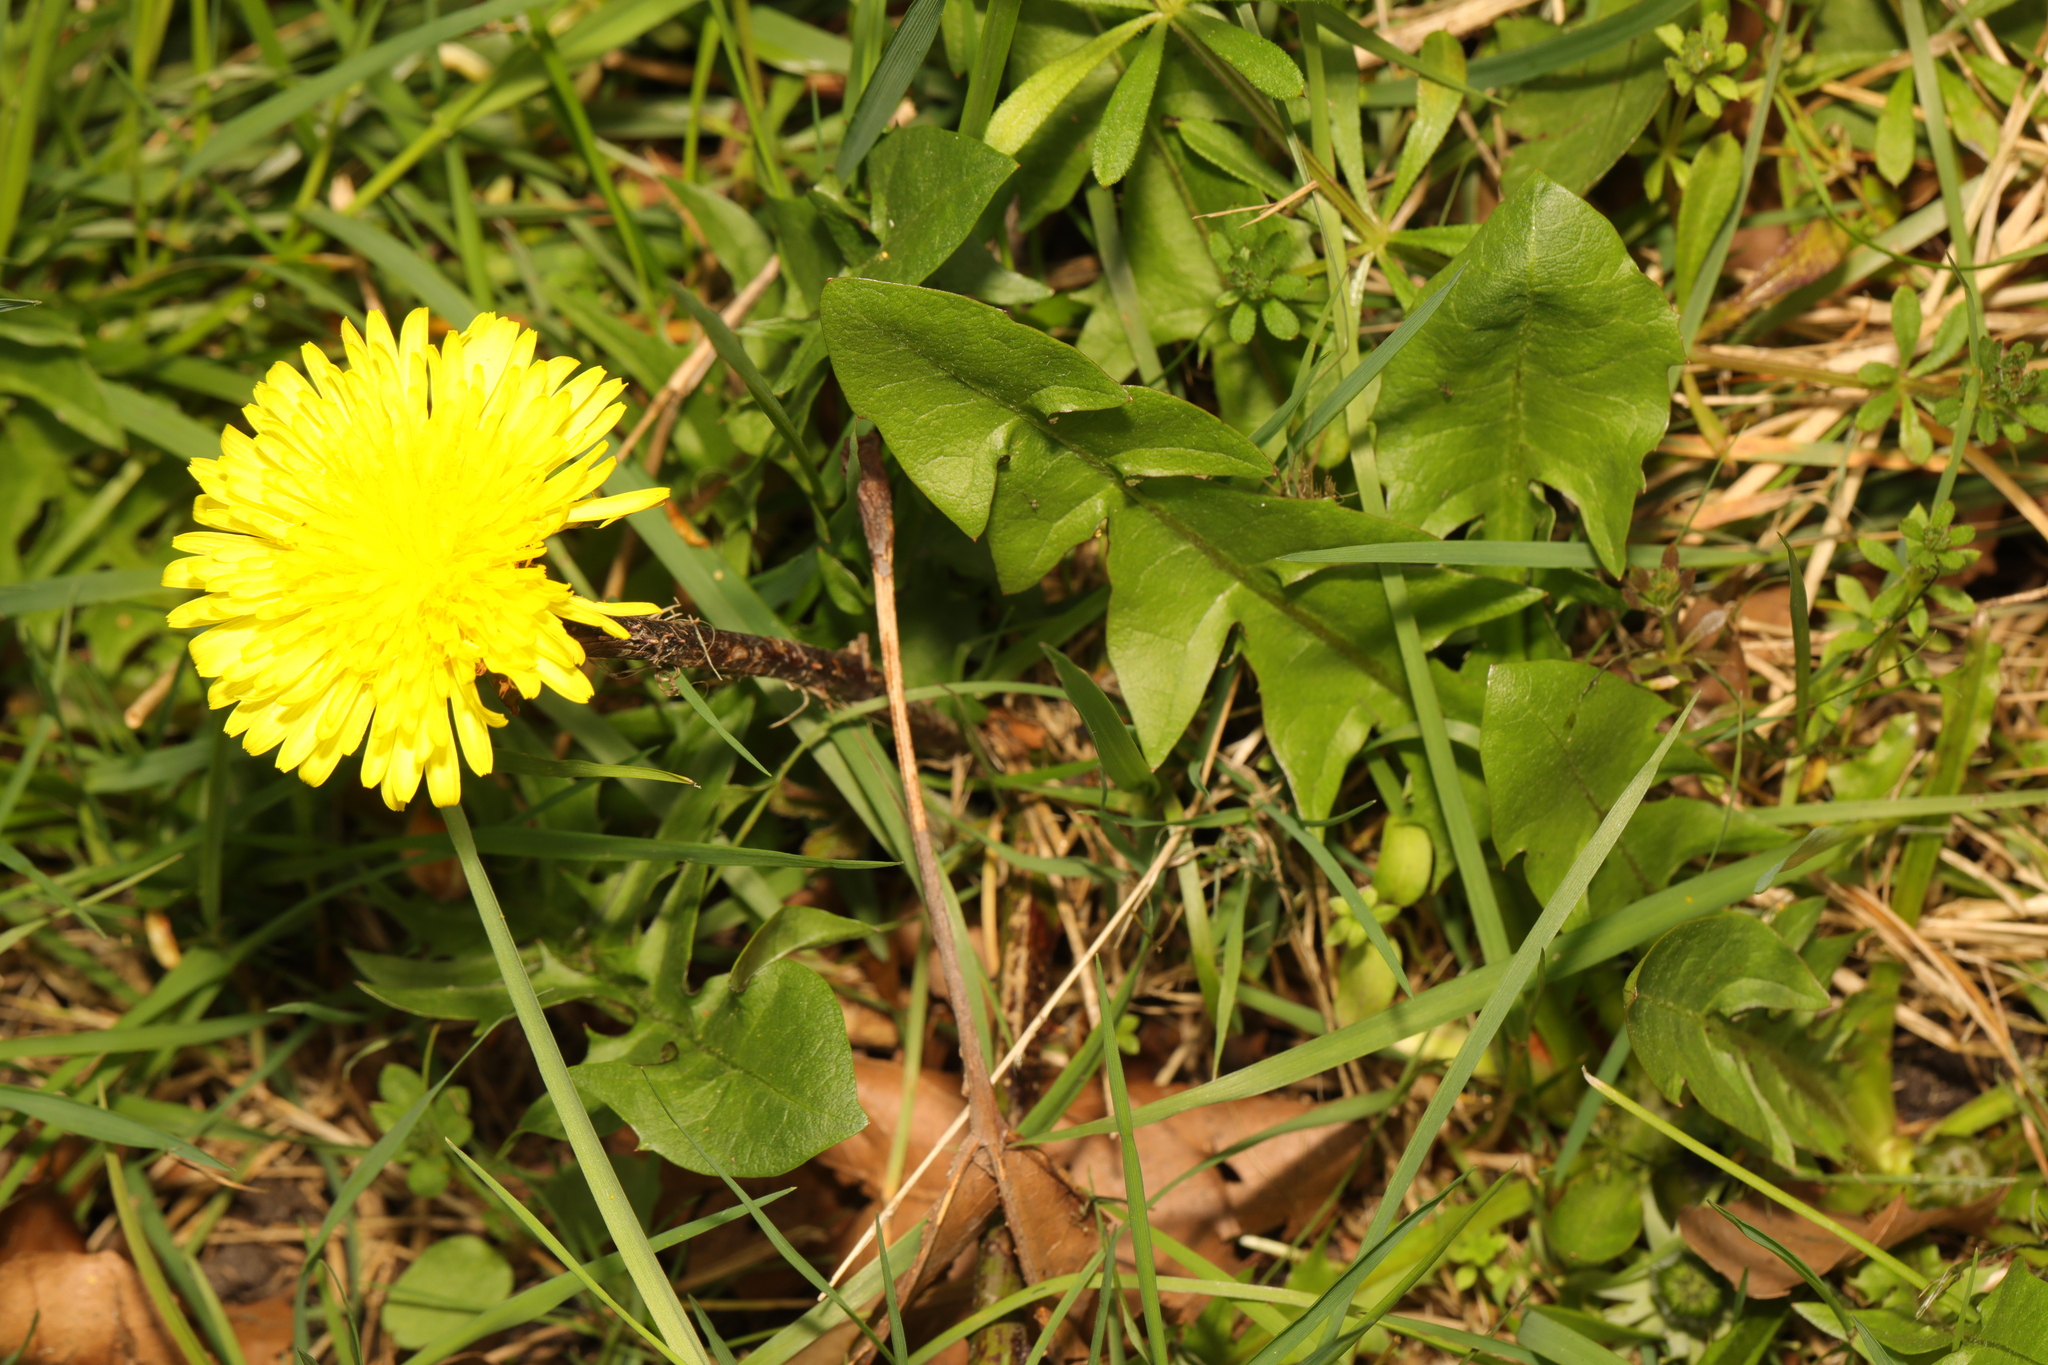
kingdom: Plantae
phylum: Tracheophyta
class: Magnoliopsida
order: Asterales
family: Asteraceae
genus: Taraxacum
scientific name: Taraxacum officinale
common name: Common dandelion
